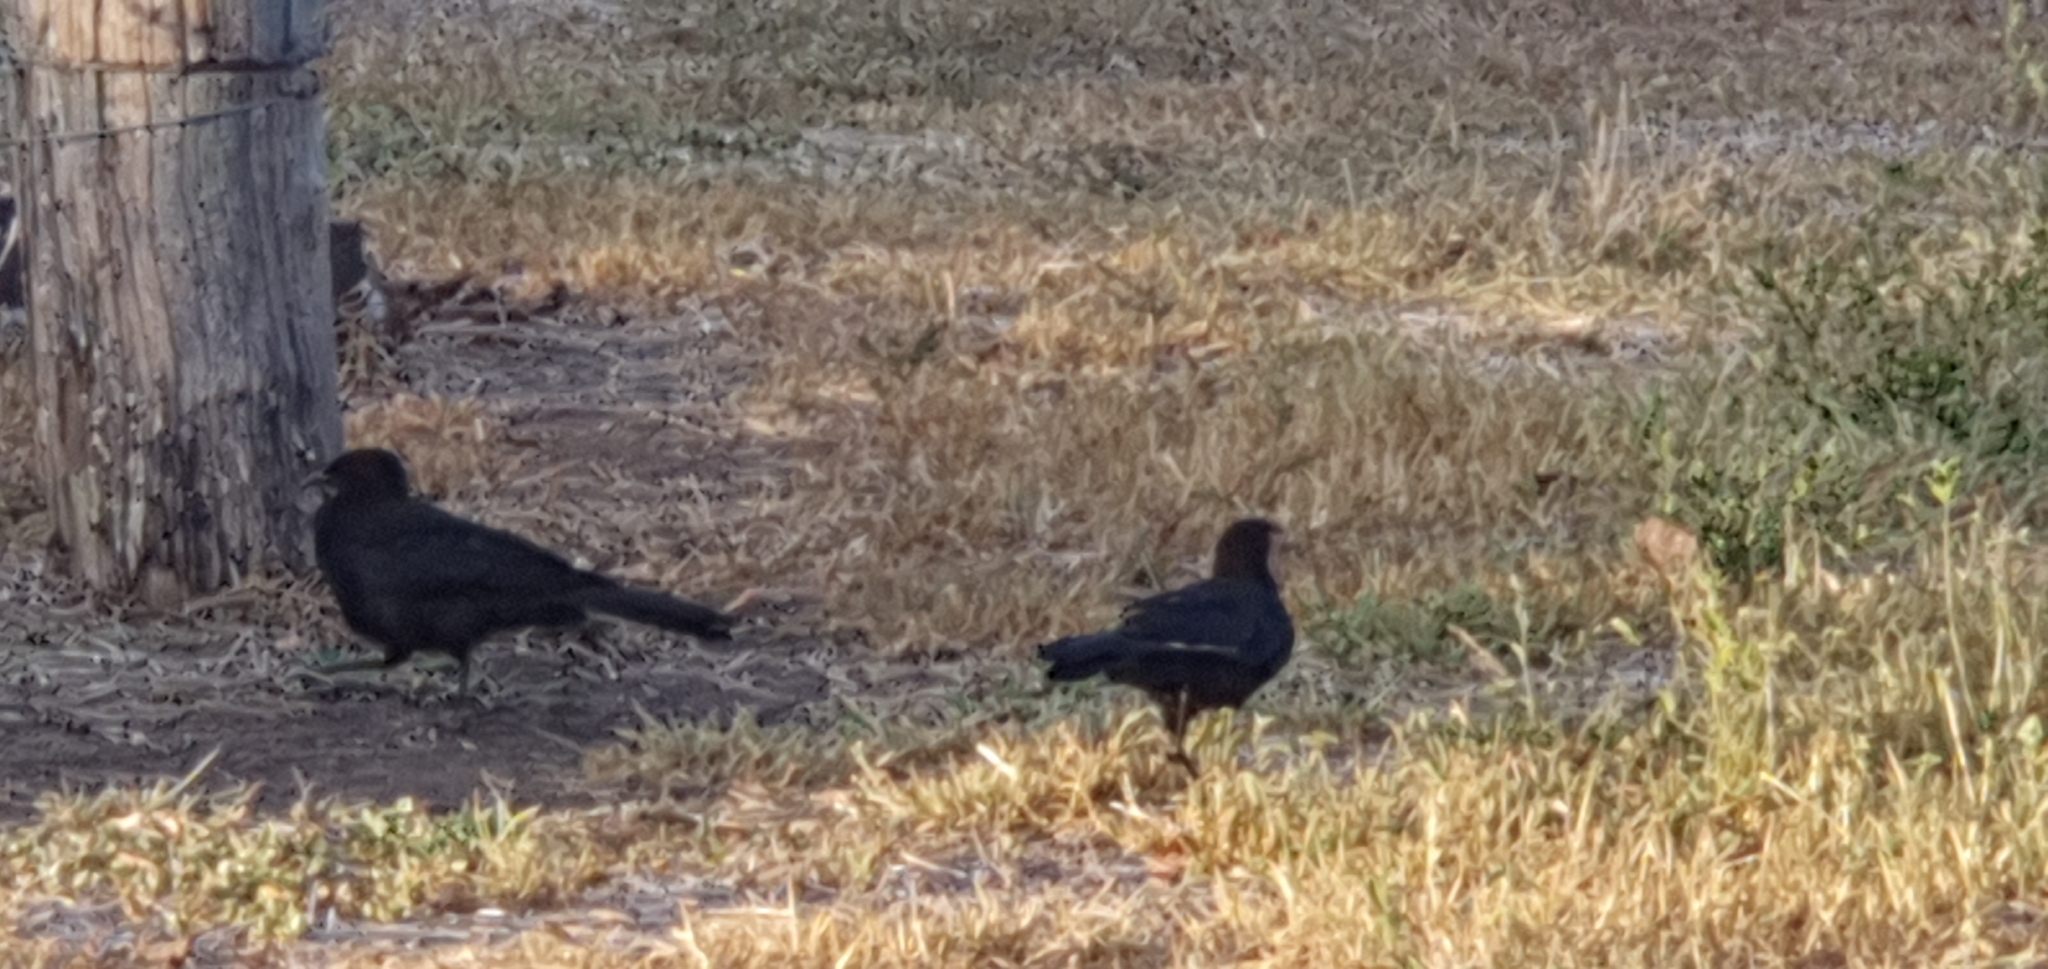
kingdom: Animalia
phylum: Chordata
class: Aves
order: Passeriformes
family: Corcoracidae
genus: Corcorax
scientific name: Corcorax melanoramphos
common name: White-winged chough
